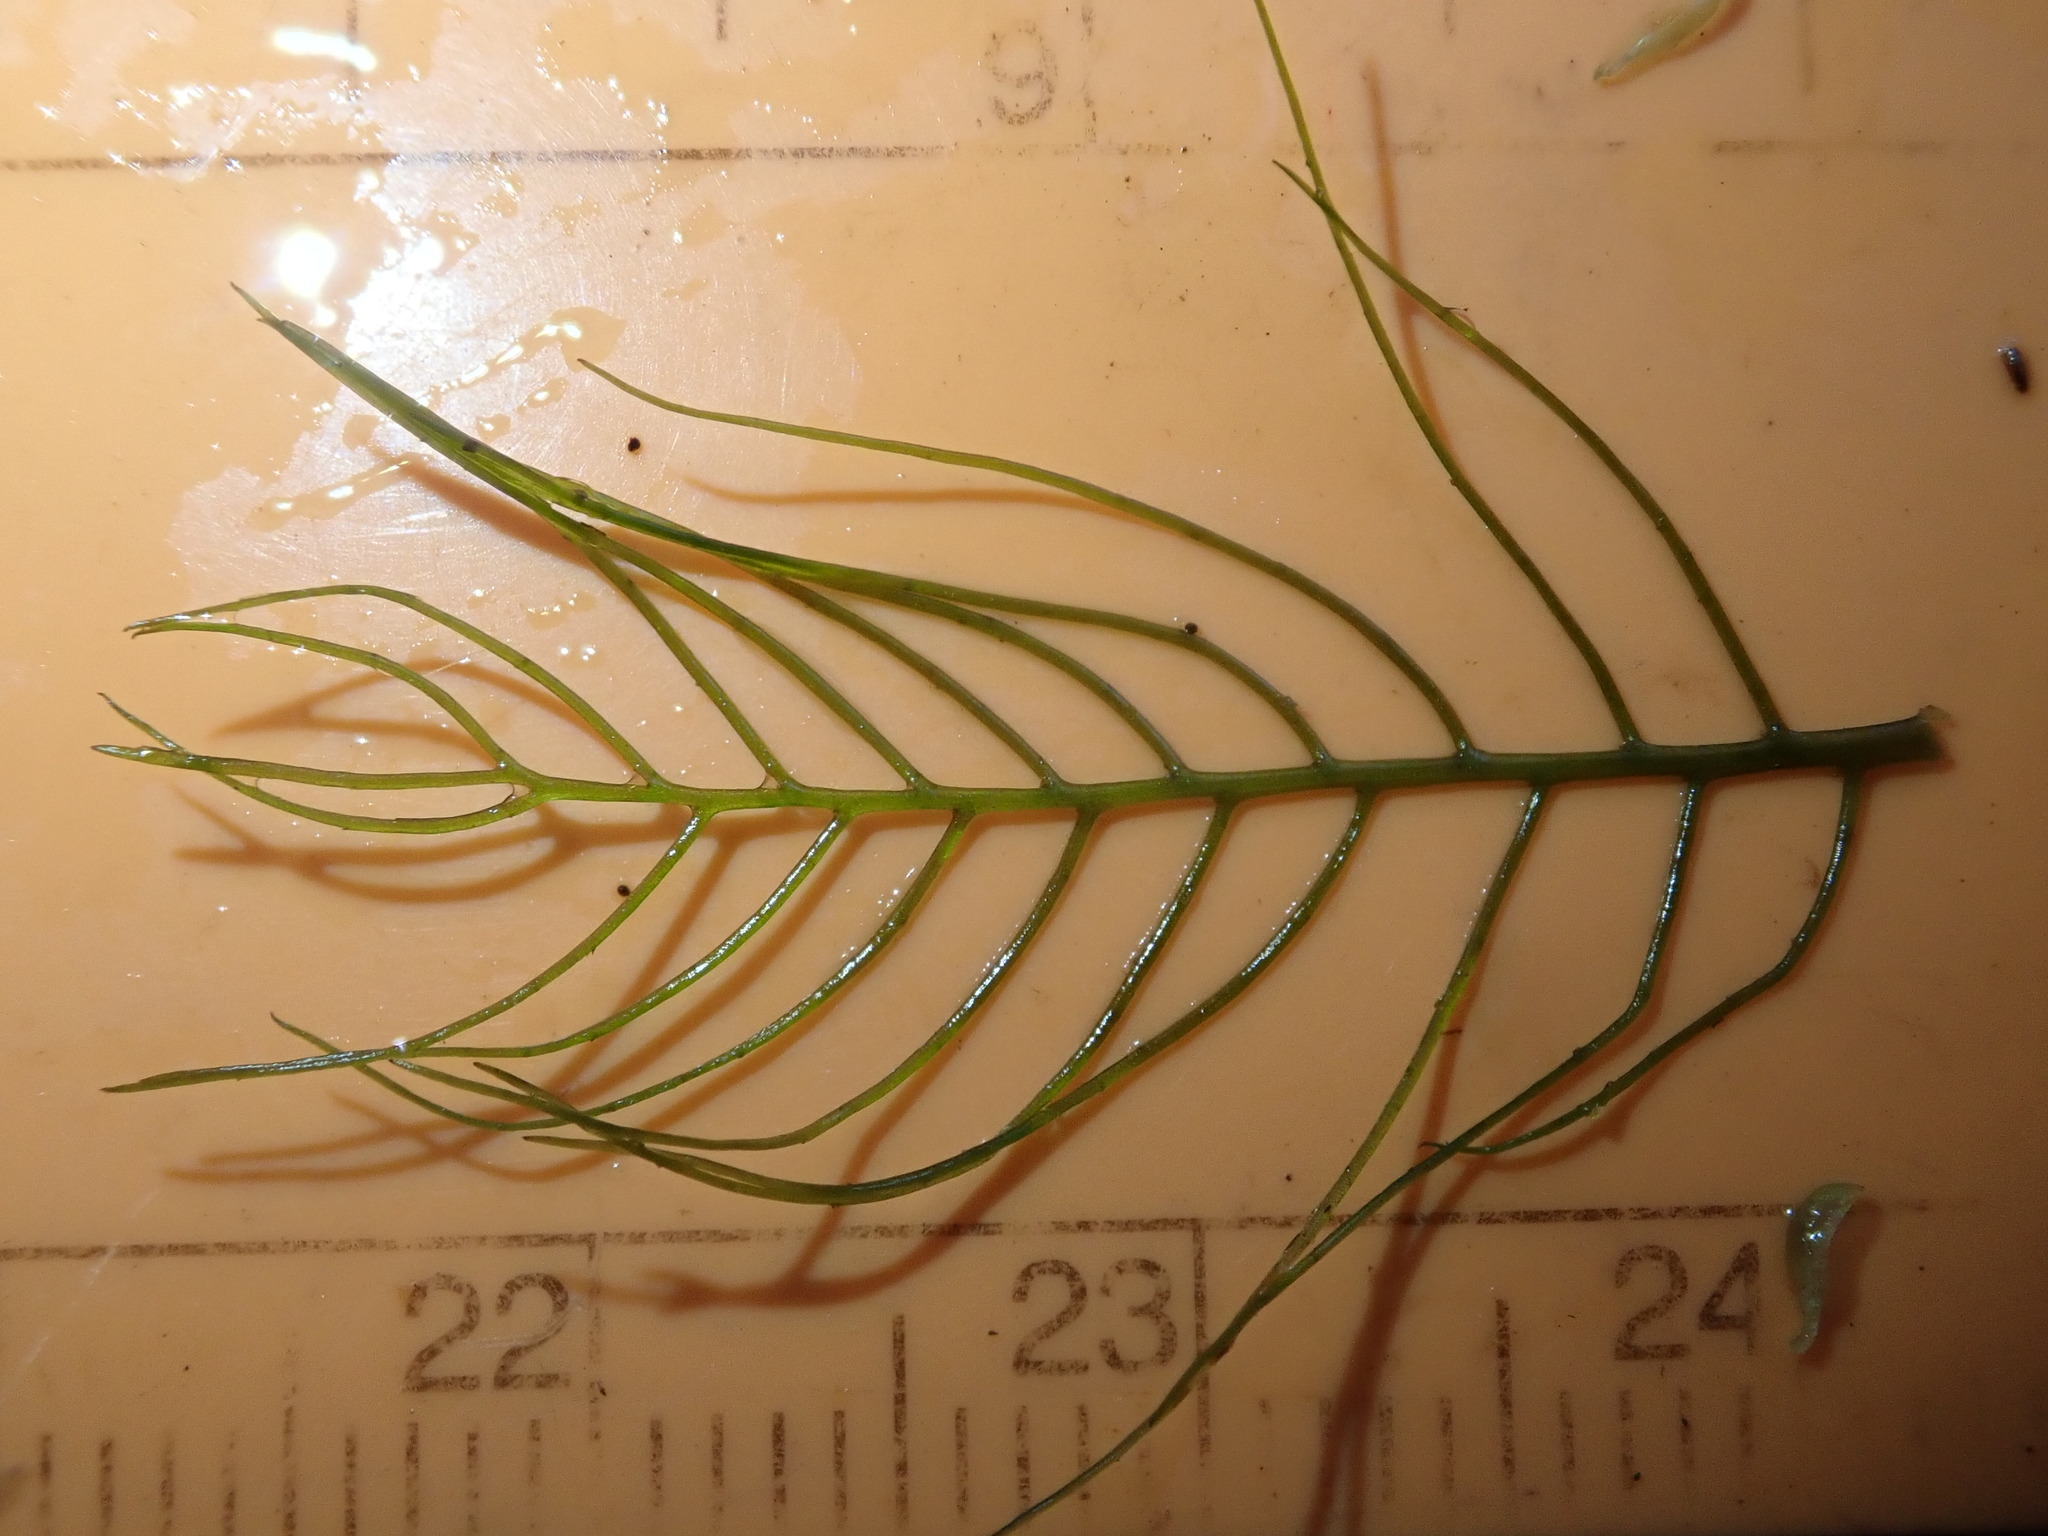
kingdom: Plantae
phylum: Tracheophyta
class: Magnoliopsida
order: Saxifragales
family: Haloragaceae
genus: Myriophyllum
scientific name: Myriophyllum verticillatum
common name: Whorled water-milfoil
